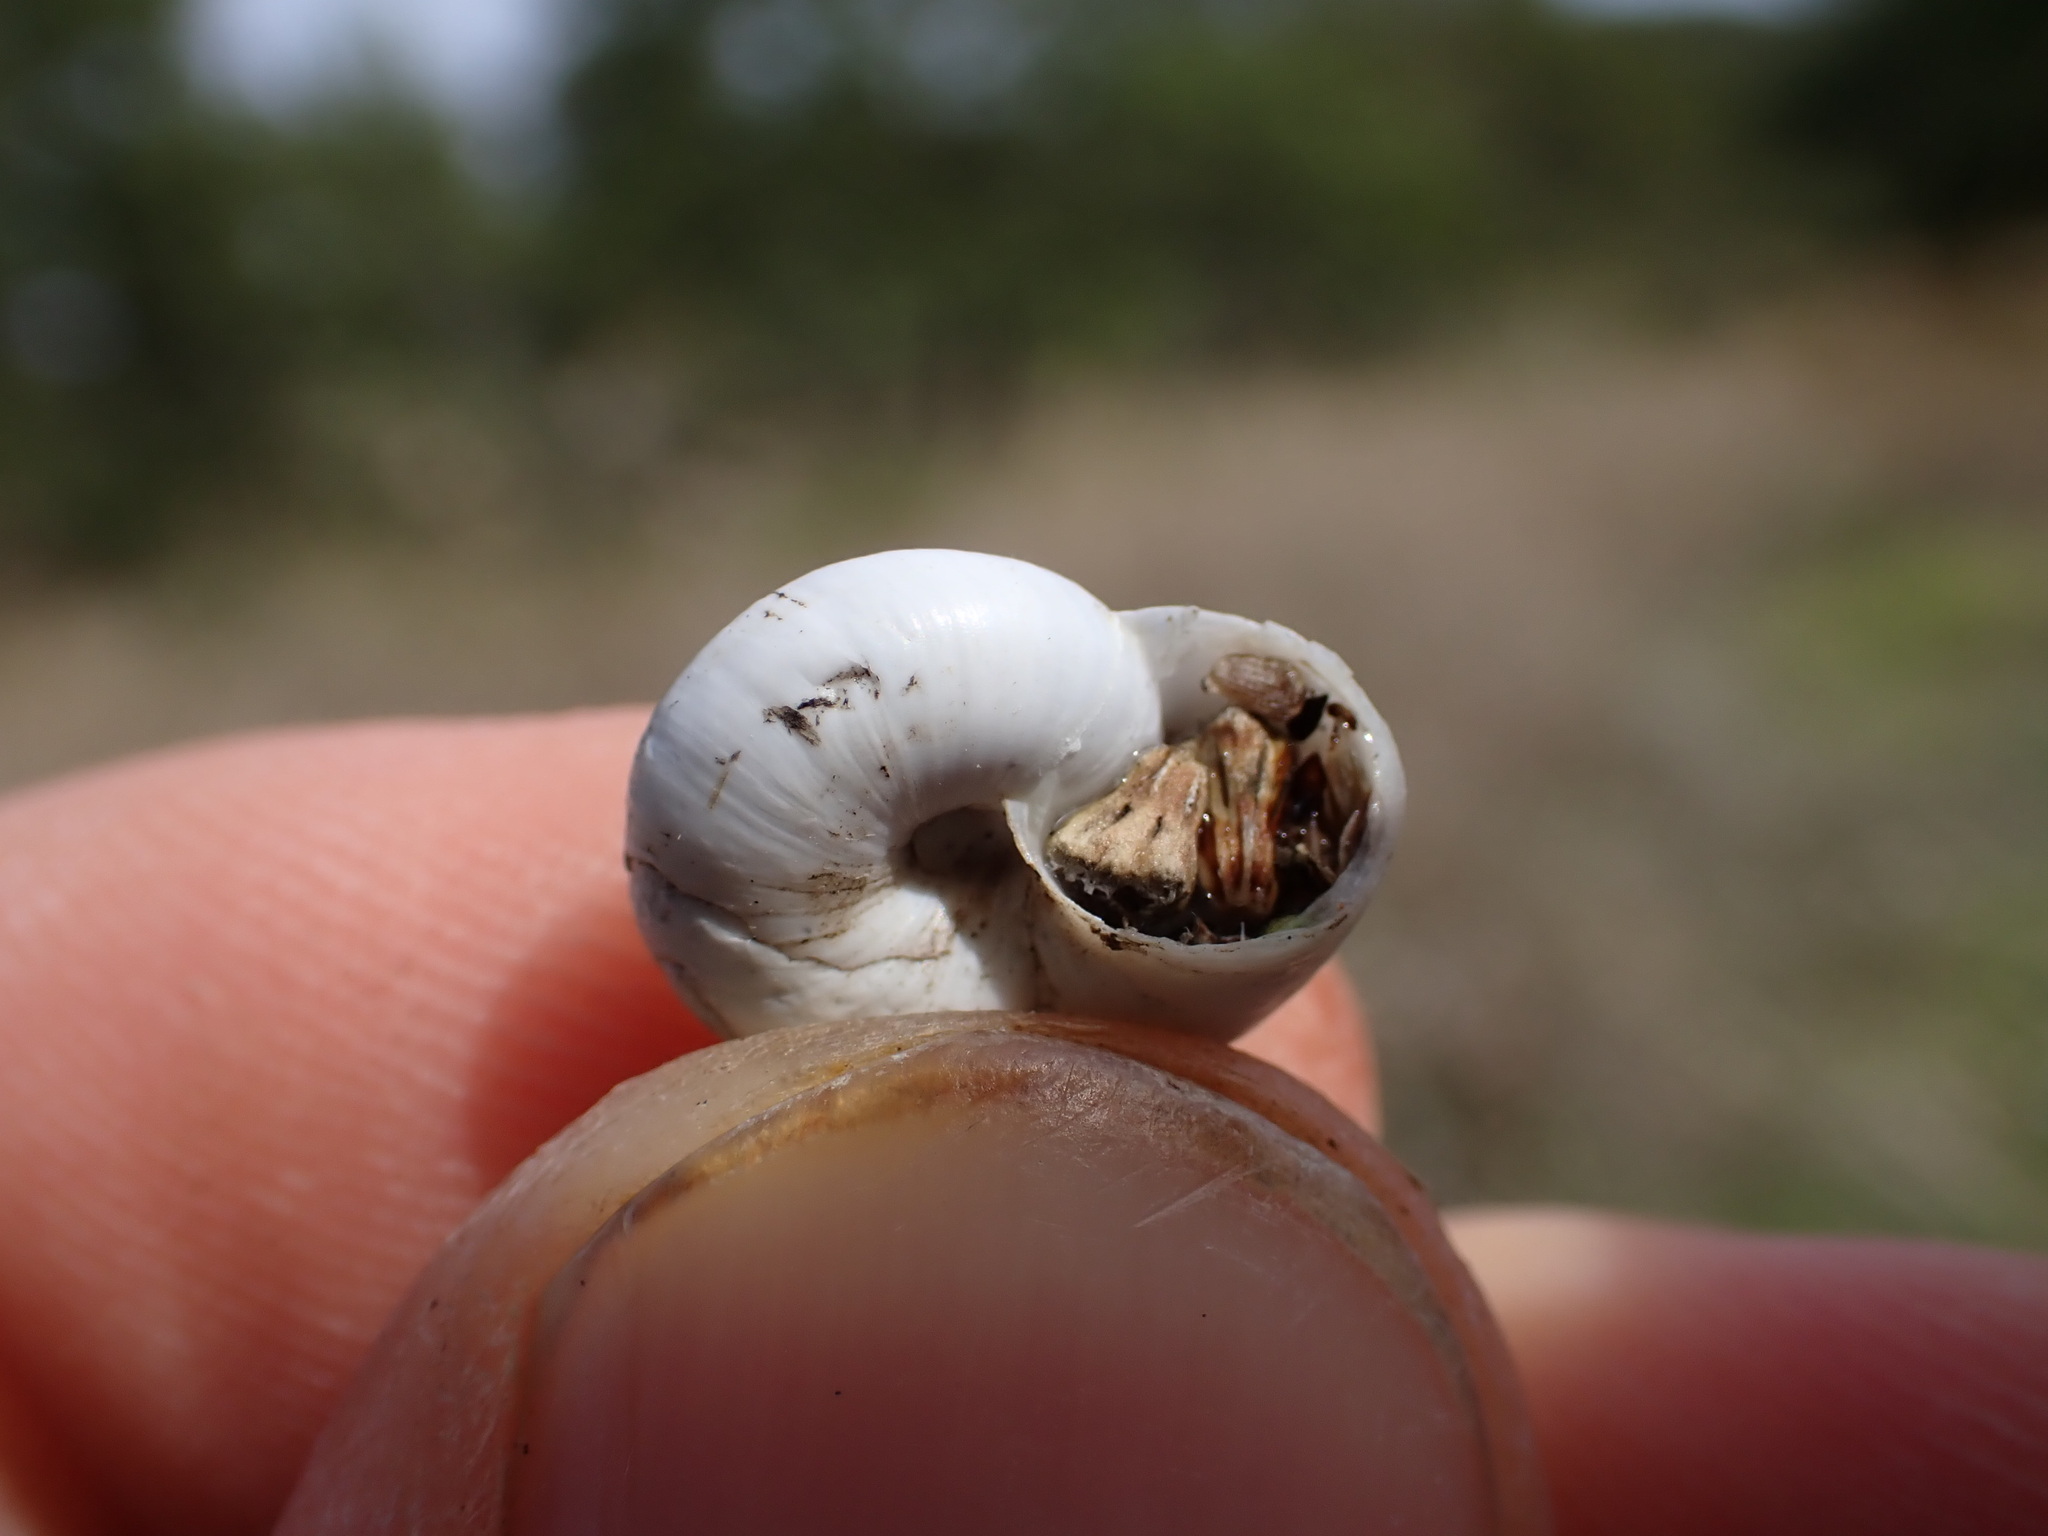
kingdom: Animalia
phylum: Mollusca
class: Gastropoda
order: Stylommatophora
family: Geomitridae
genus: Xeropicta
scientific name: Xeropicta derbentina
